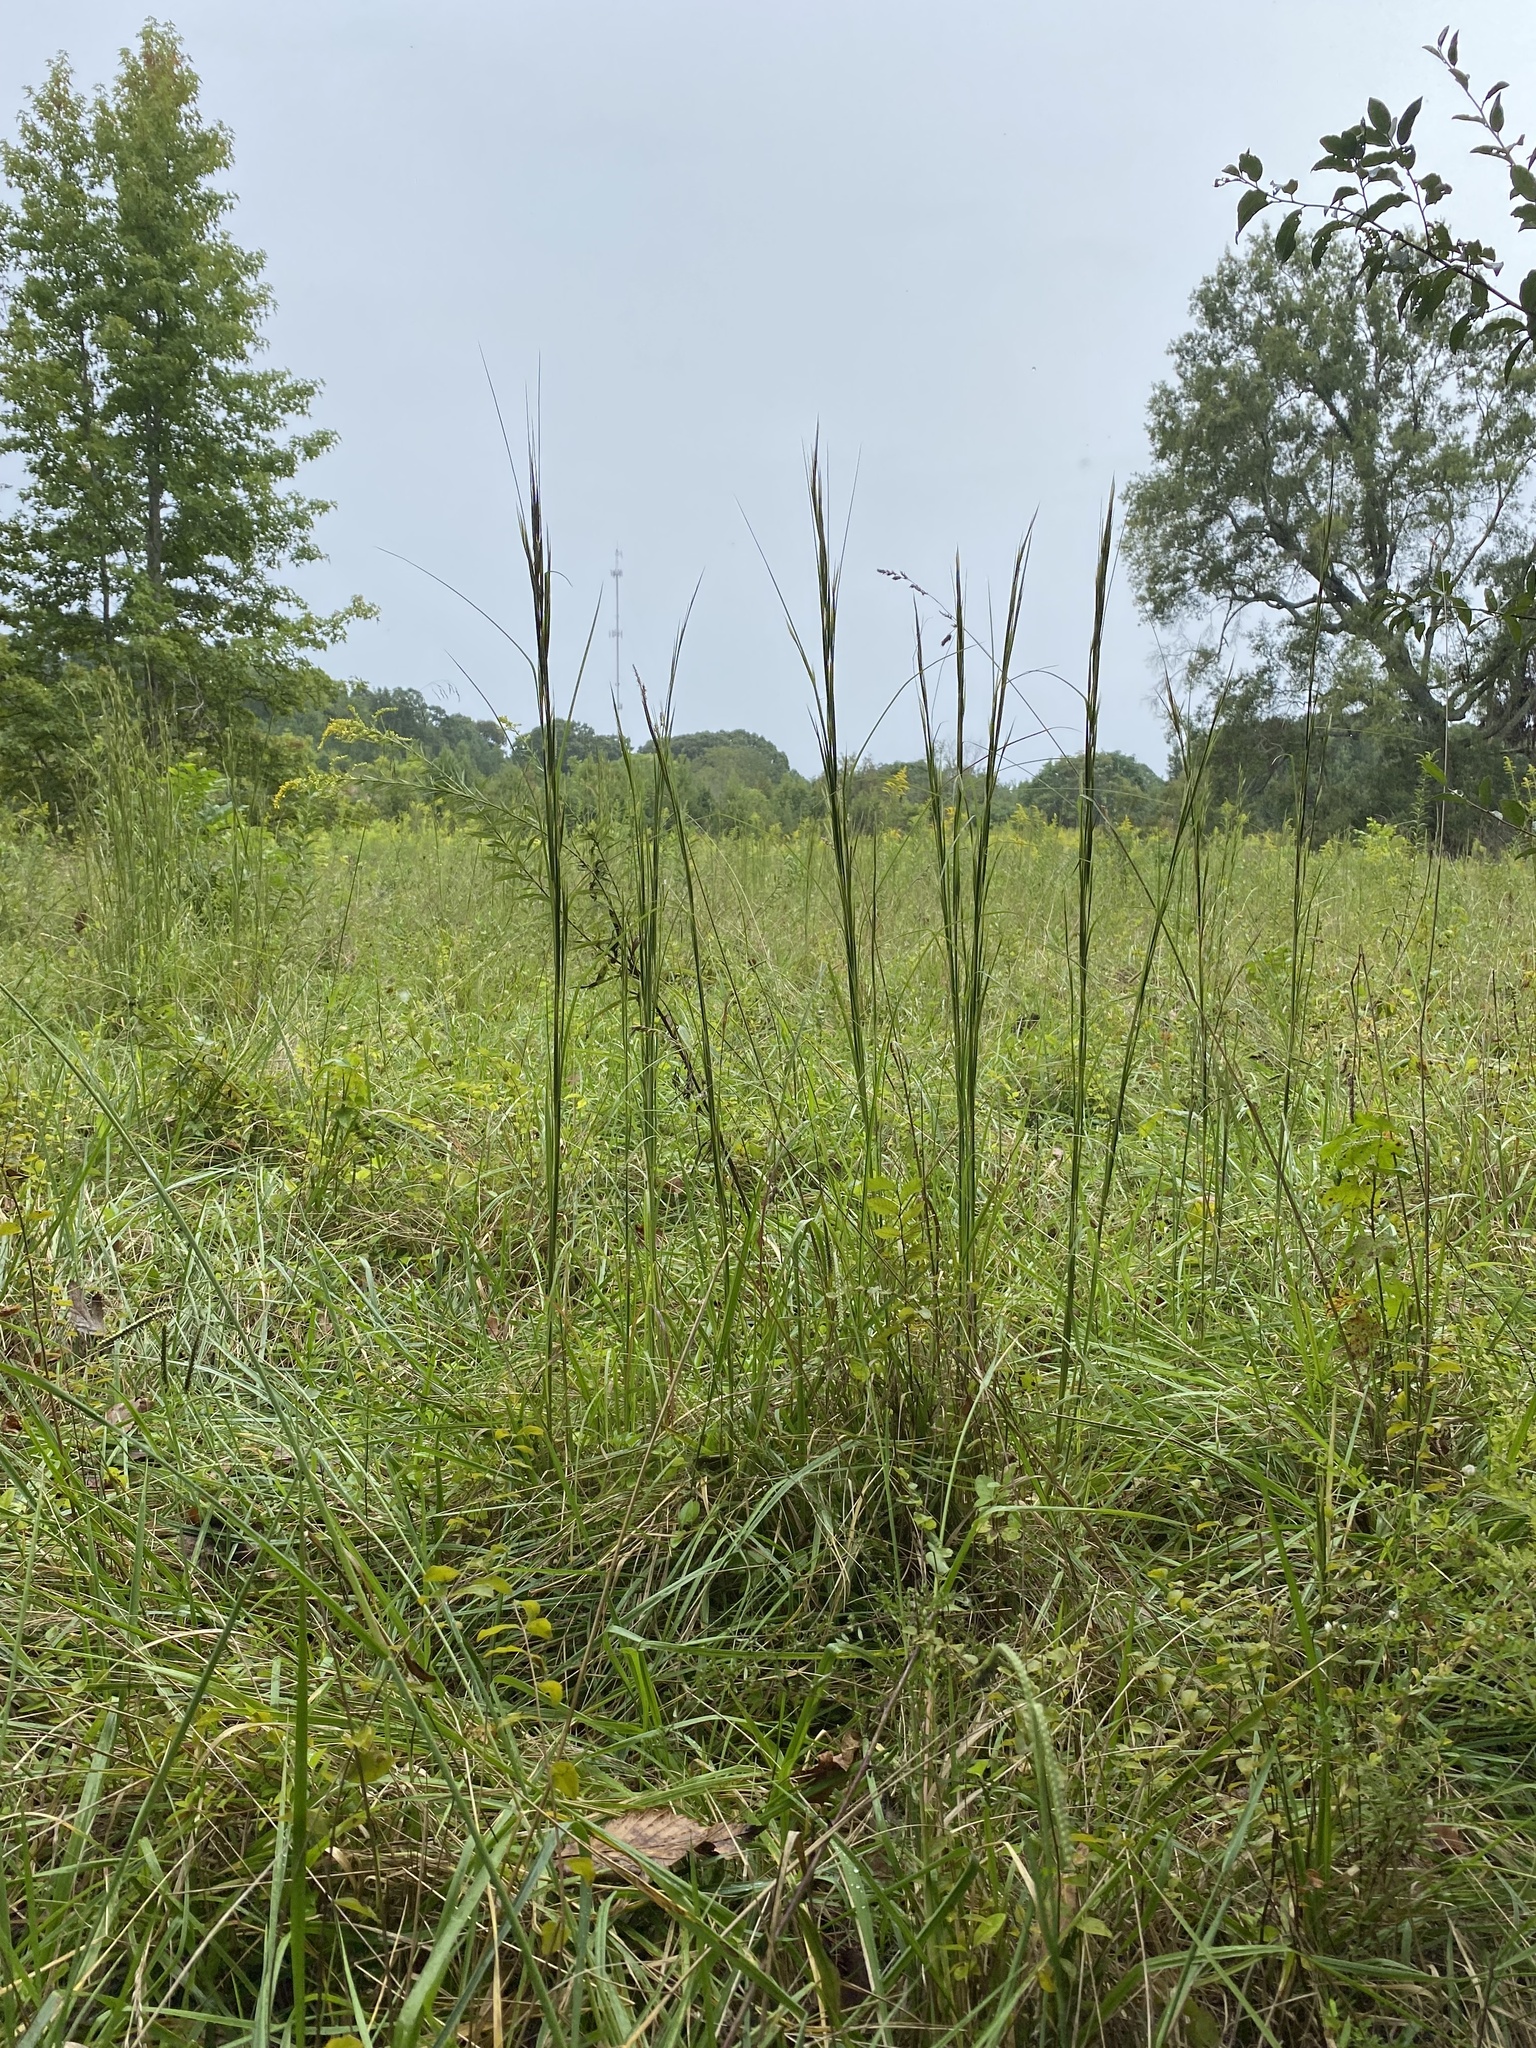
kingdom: Plantae
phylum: Tracheophyta
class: Liliopsida
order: Poales
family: Poaceae
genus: Andropogon
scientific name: Andropogon virginicus
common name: Broomsedge bluestem
